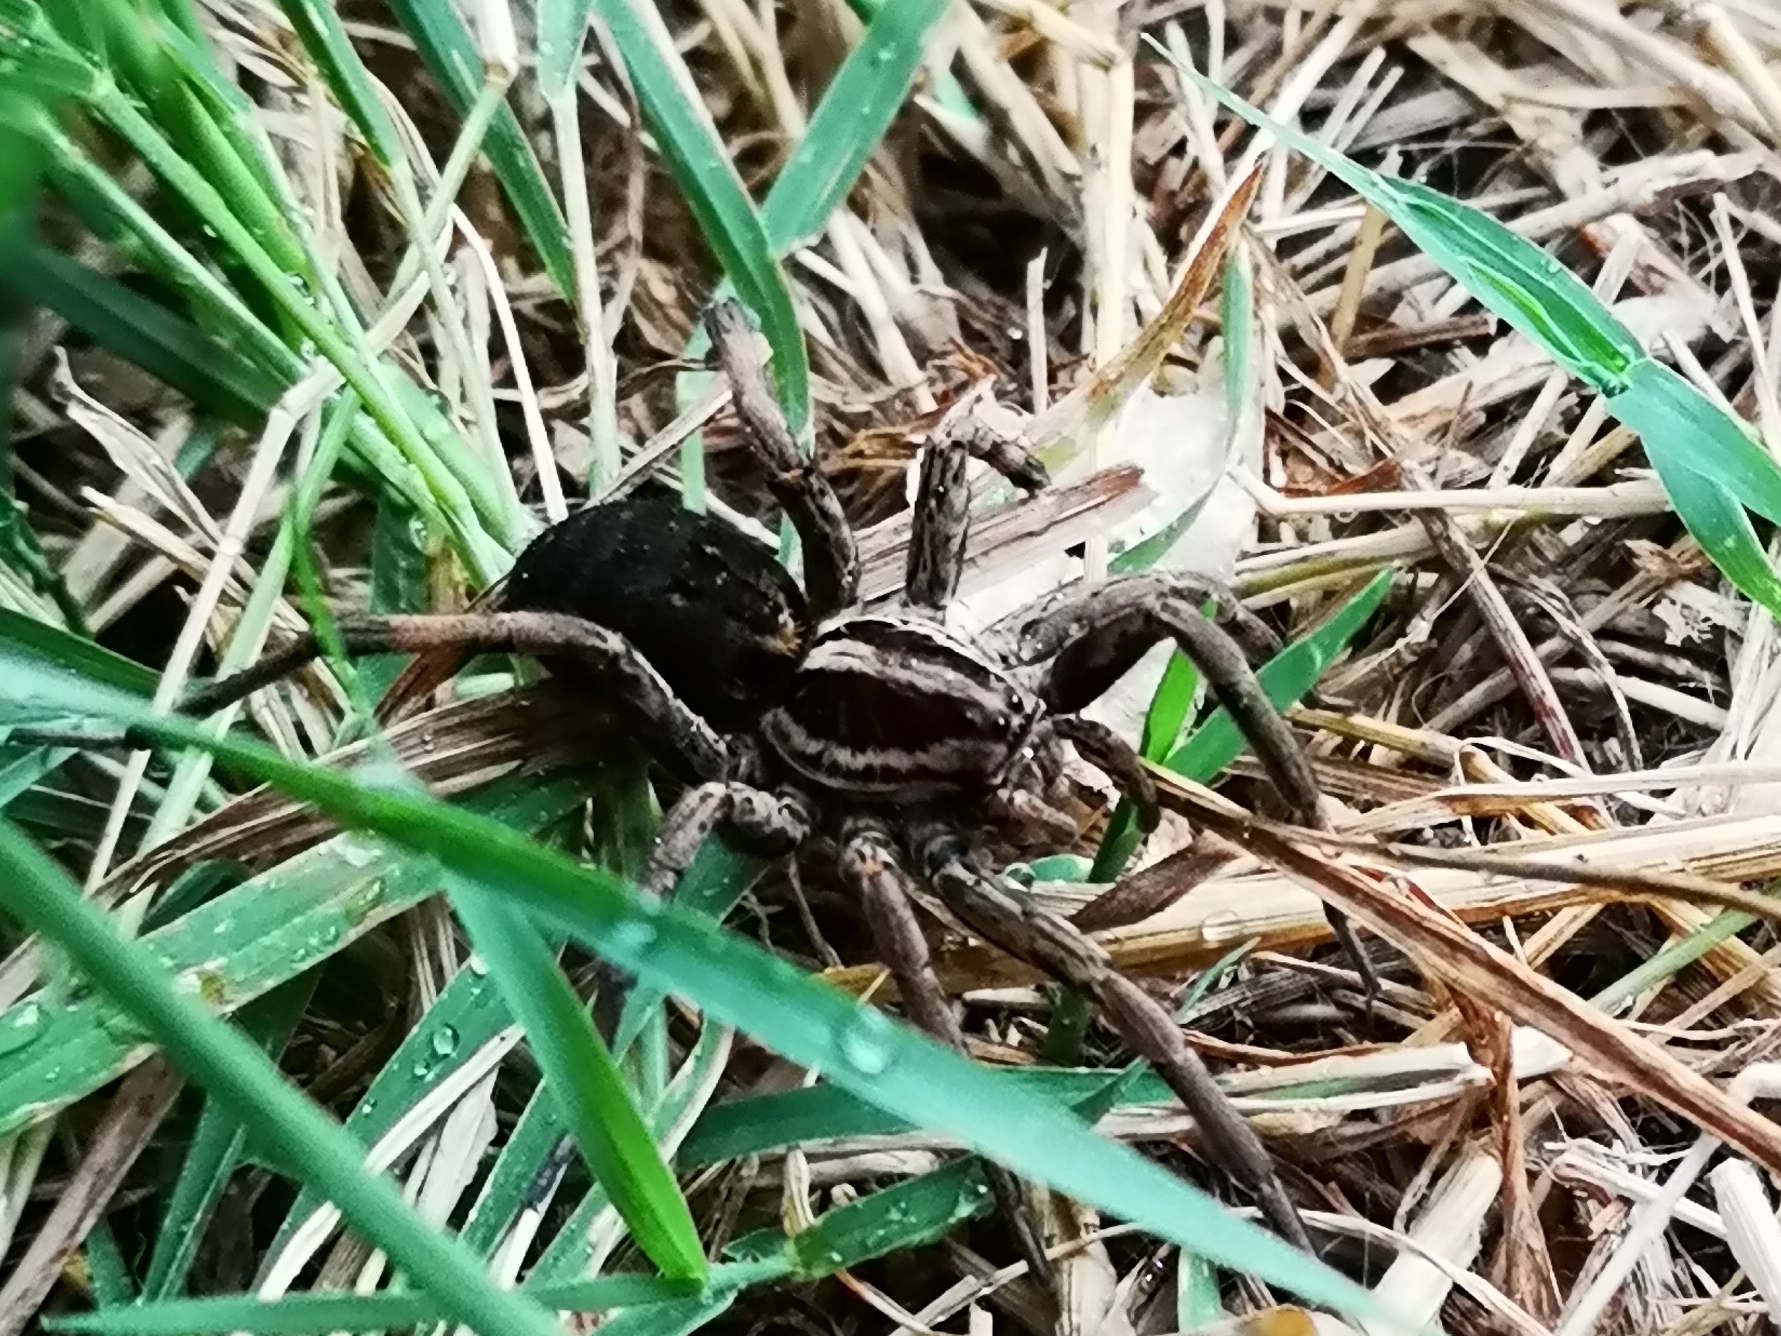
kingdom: Animalia
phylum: Arthropoda
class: Arachnida
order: Araneae
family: Lycosidae
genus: Hogna
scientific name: Hogna radiata
